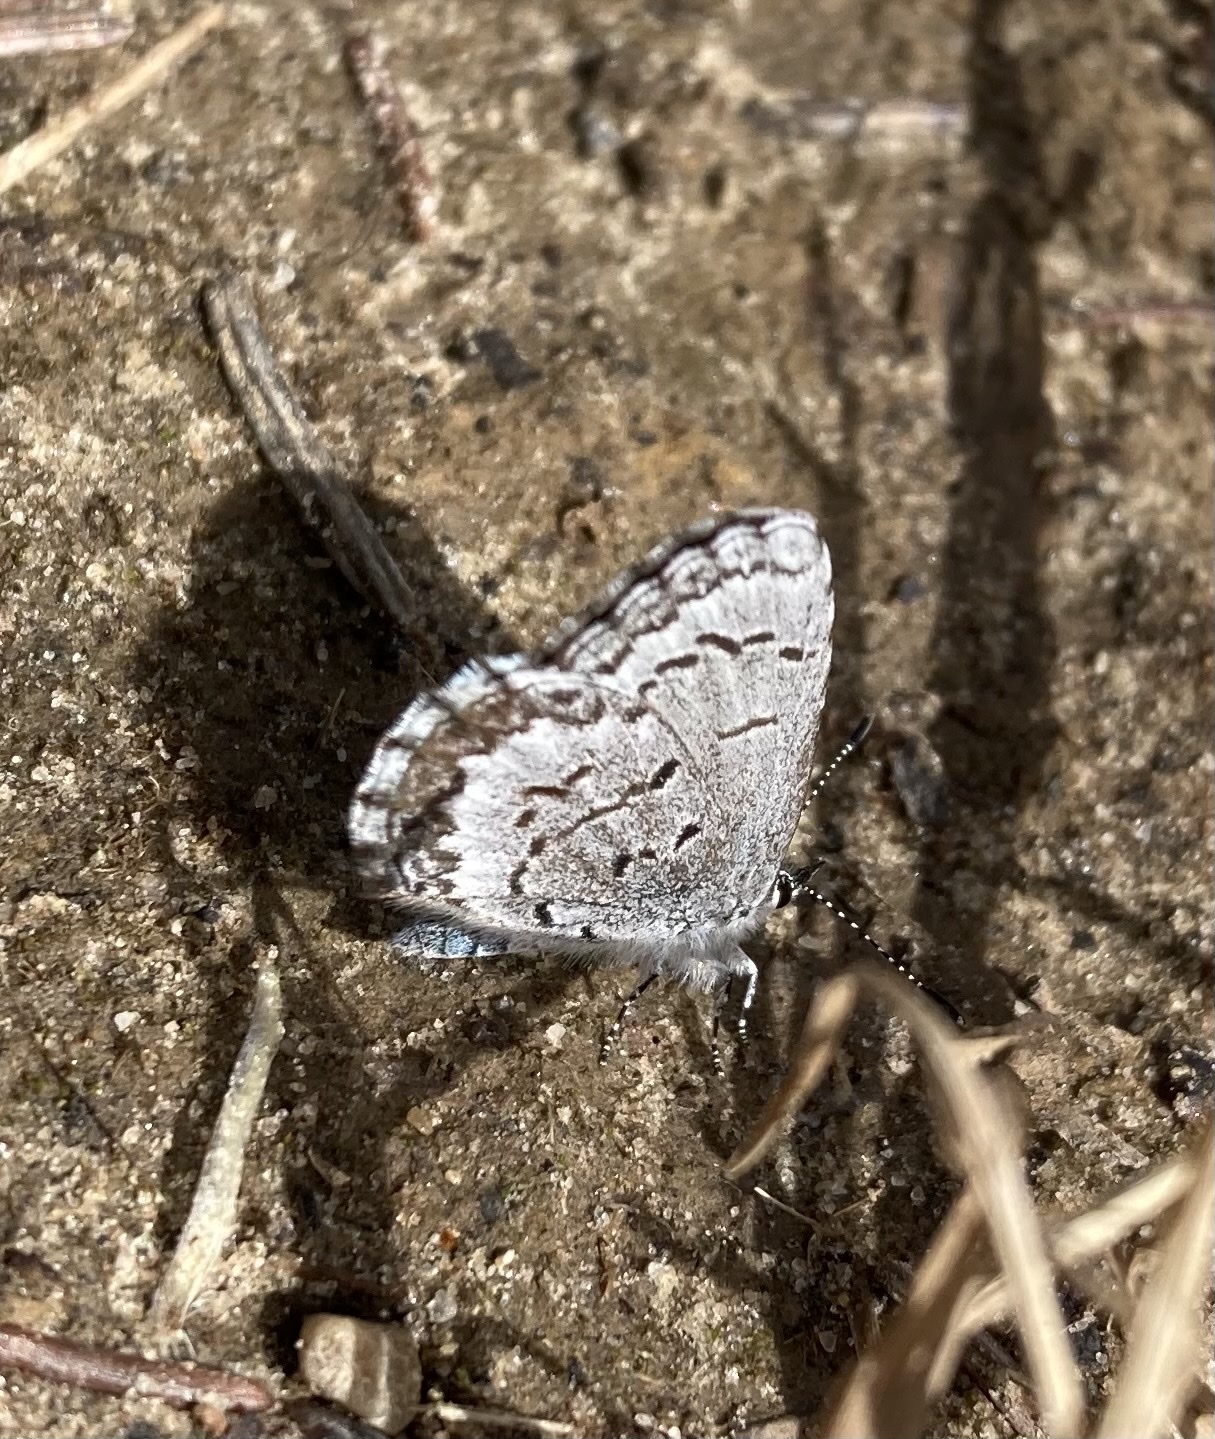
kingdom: Animalia
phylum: Arthropoda
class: Insecta
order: Lepidoptera
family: Lycaenidae
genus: Celastrina
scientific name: Celastrina lucia
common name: Lucia azure
